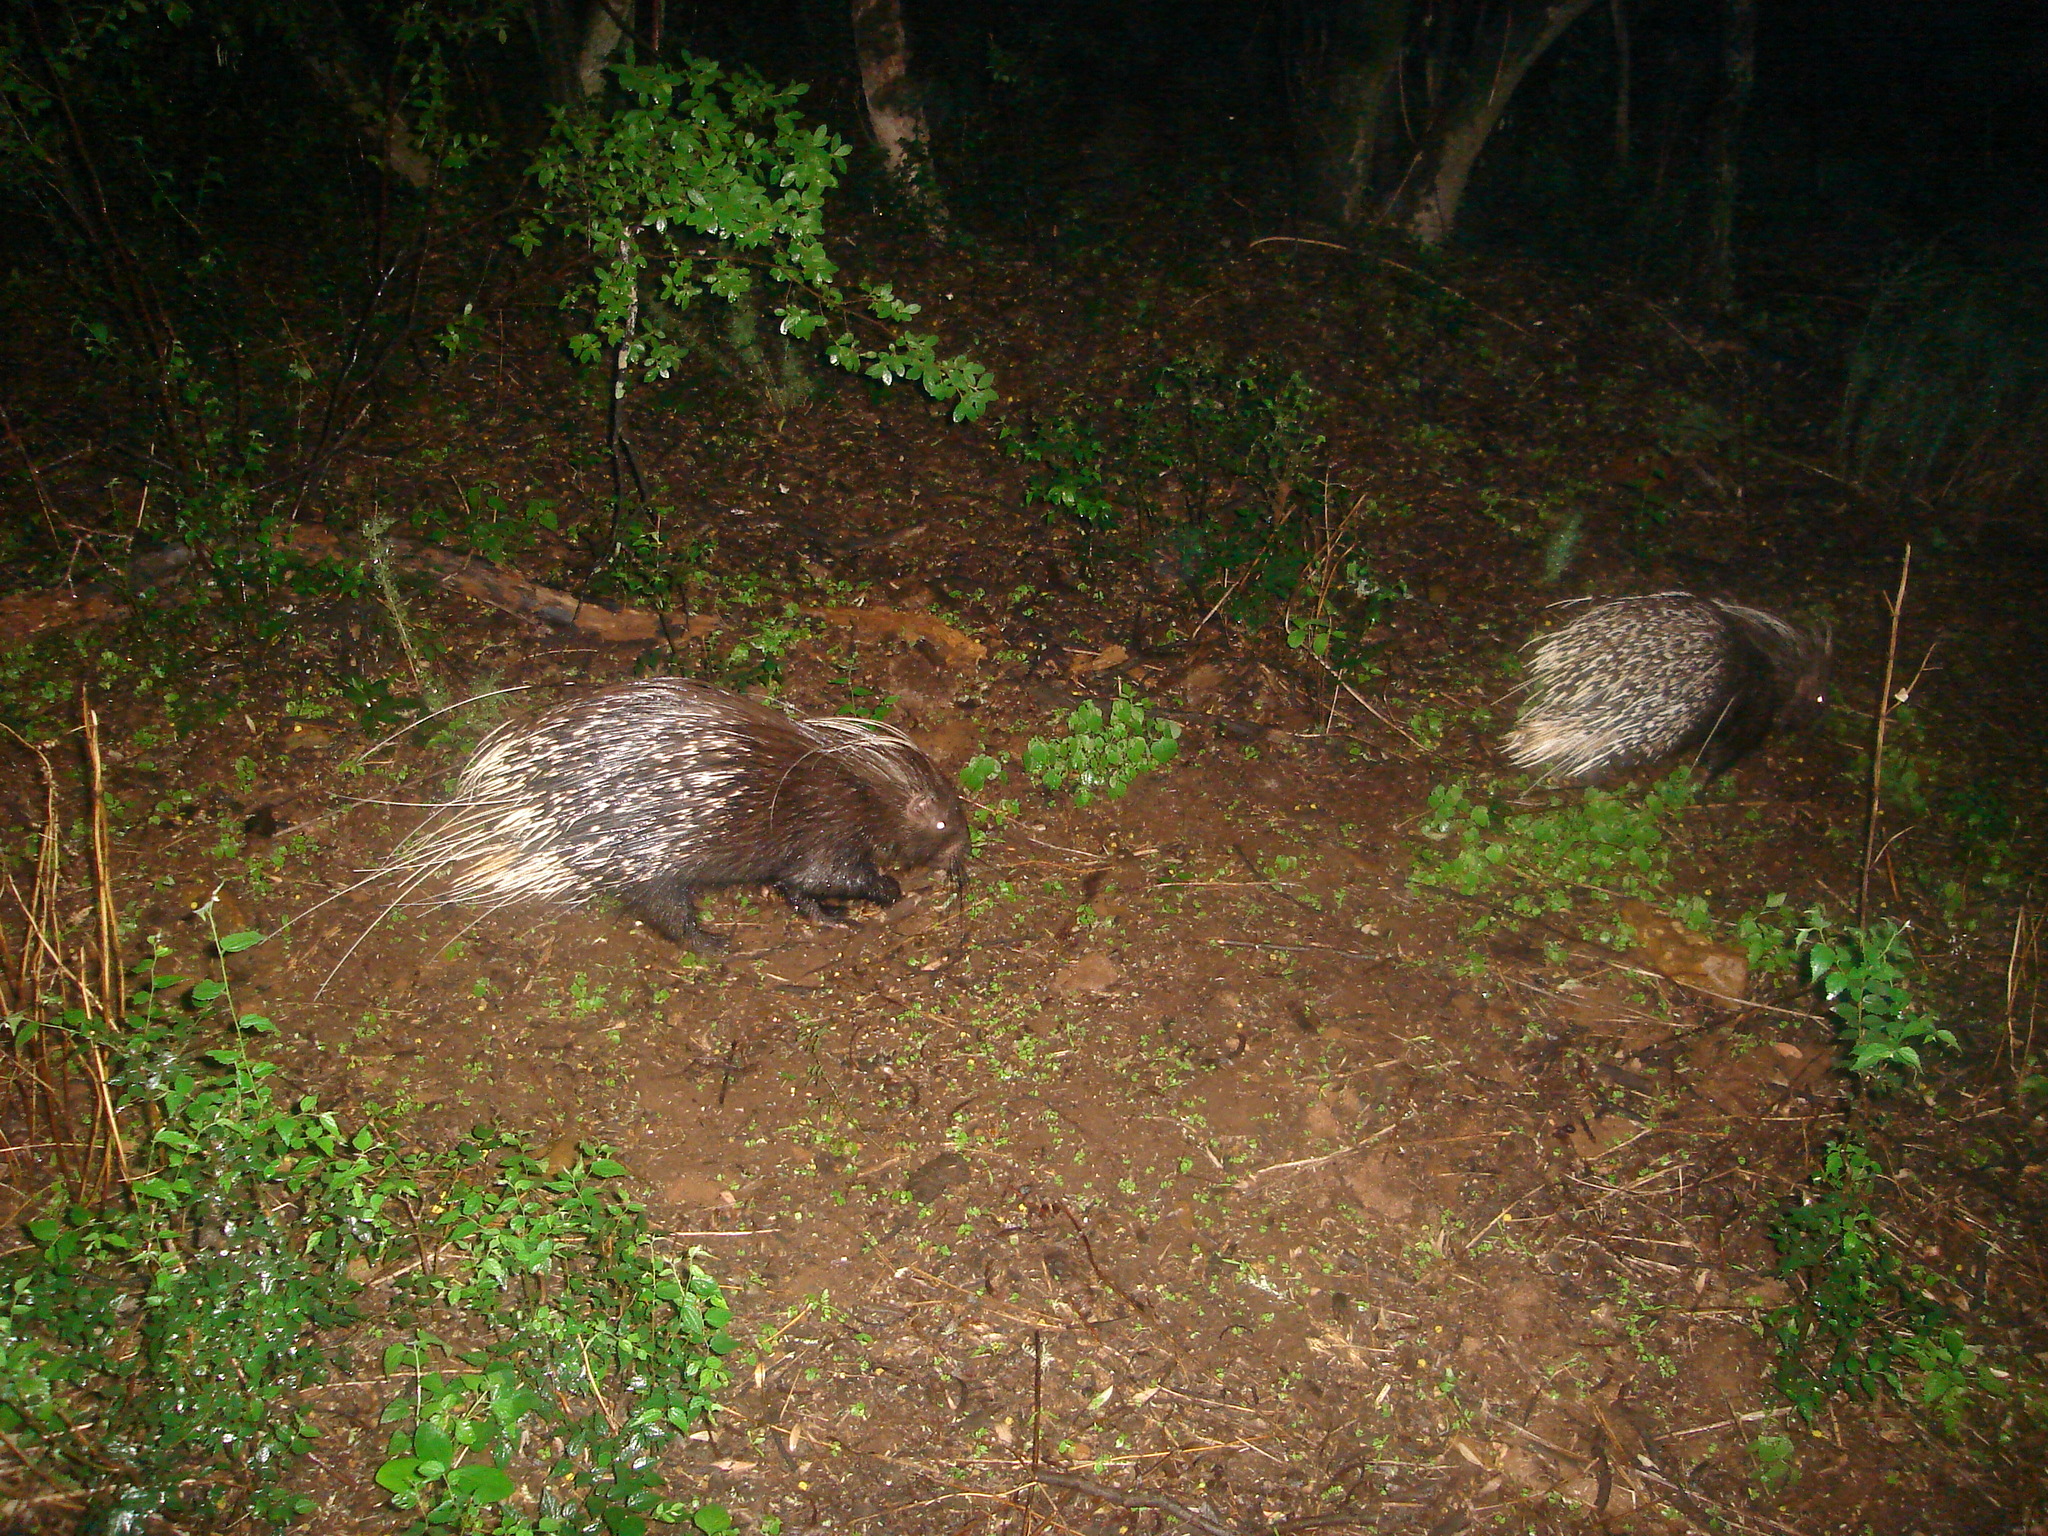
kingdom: Animalia
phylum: Chordata
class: Mammalia
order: Rodentia
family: Hystricidae
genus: Hystrix
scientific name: Hystrix africaeaustralis
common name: Cape porcupine
